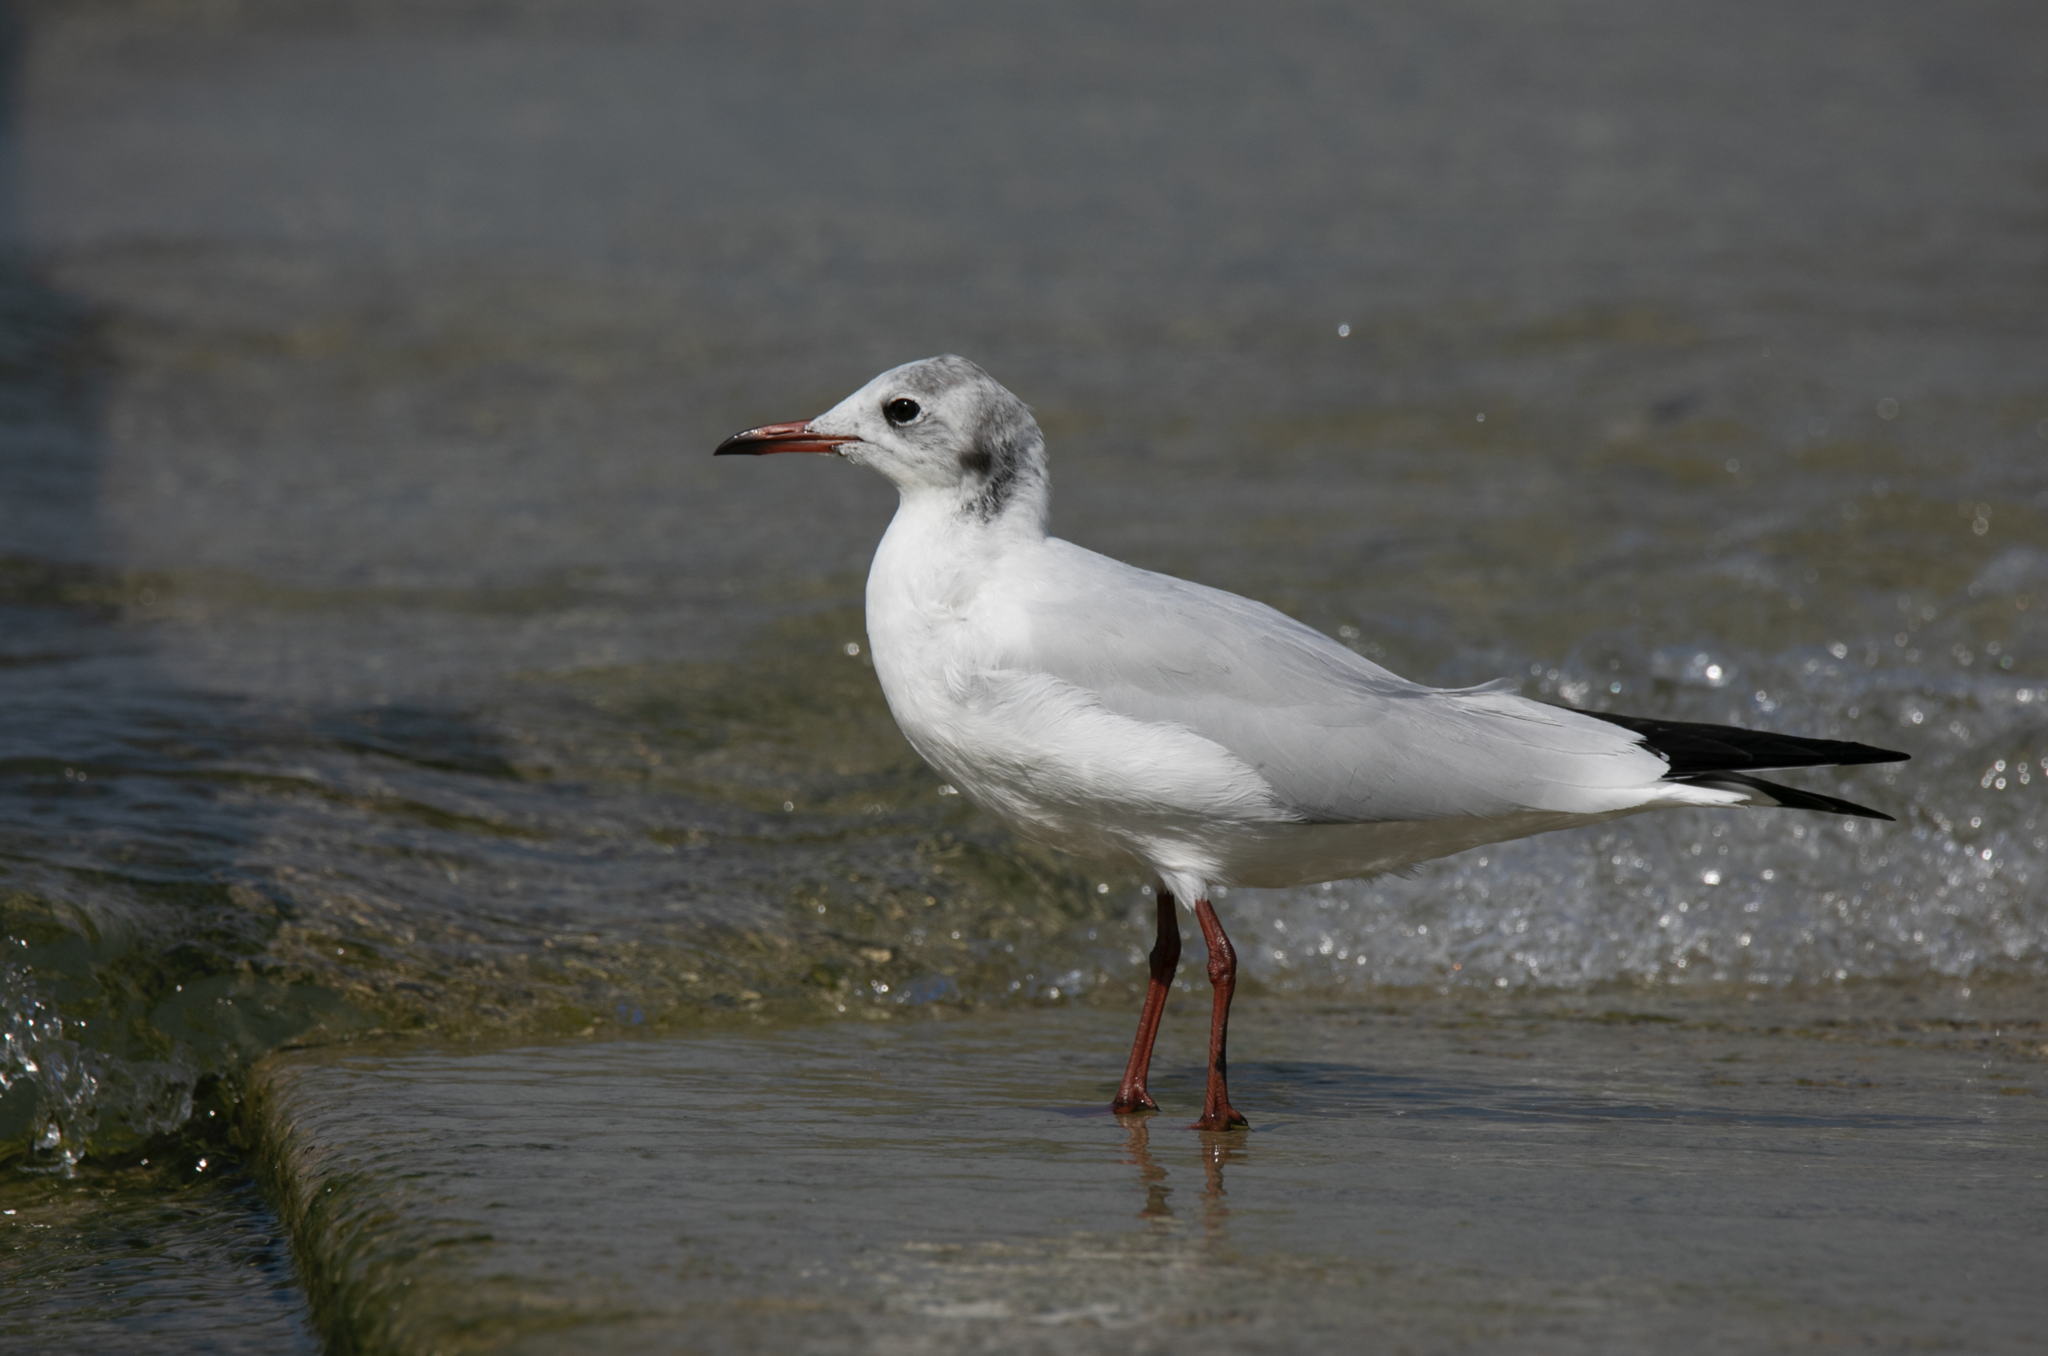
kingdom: Animalia
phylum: Chordata
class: Aves
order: Charadriiformes
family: Laridae
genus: Chroicocephalus
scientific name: Chroicocephalus ridibundus
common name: Black-headed gull
